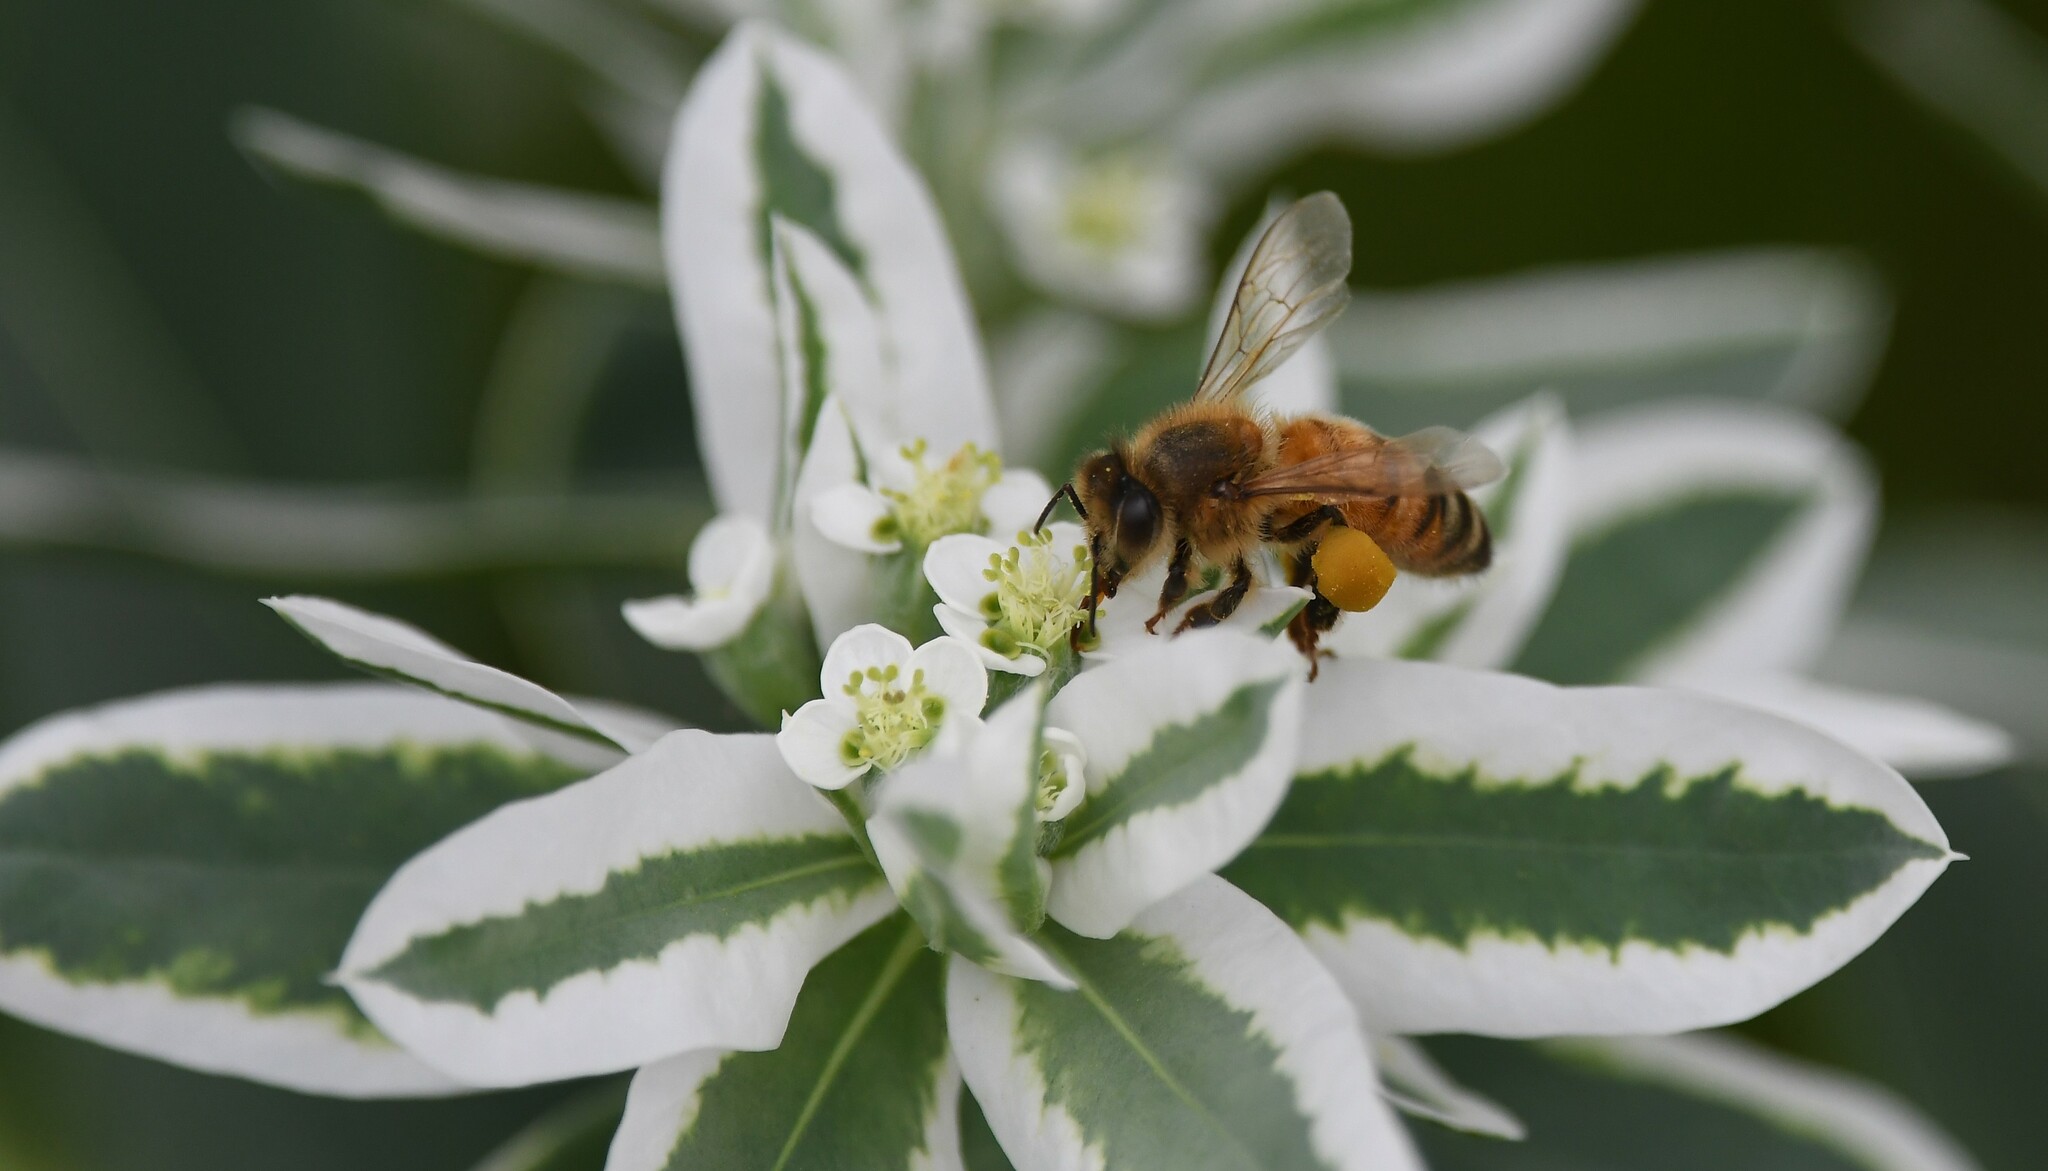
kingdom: Animalia
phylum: Arthropoda
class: Insecta
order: Hymenoptera
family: Apidae
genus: Apis
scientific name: Apis mellifera
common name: Honey bee
